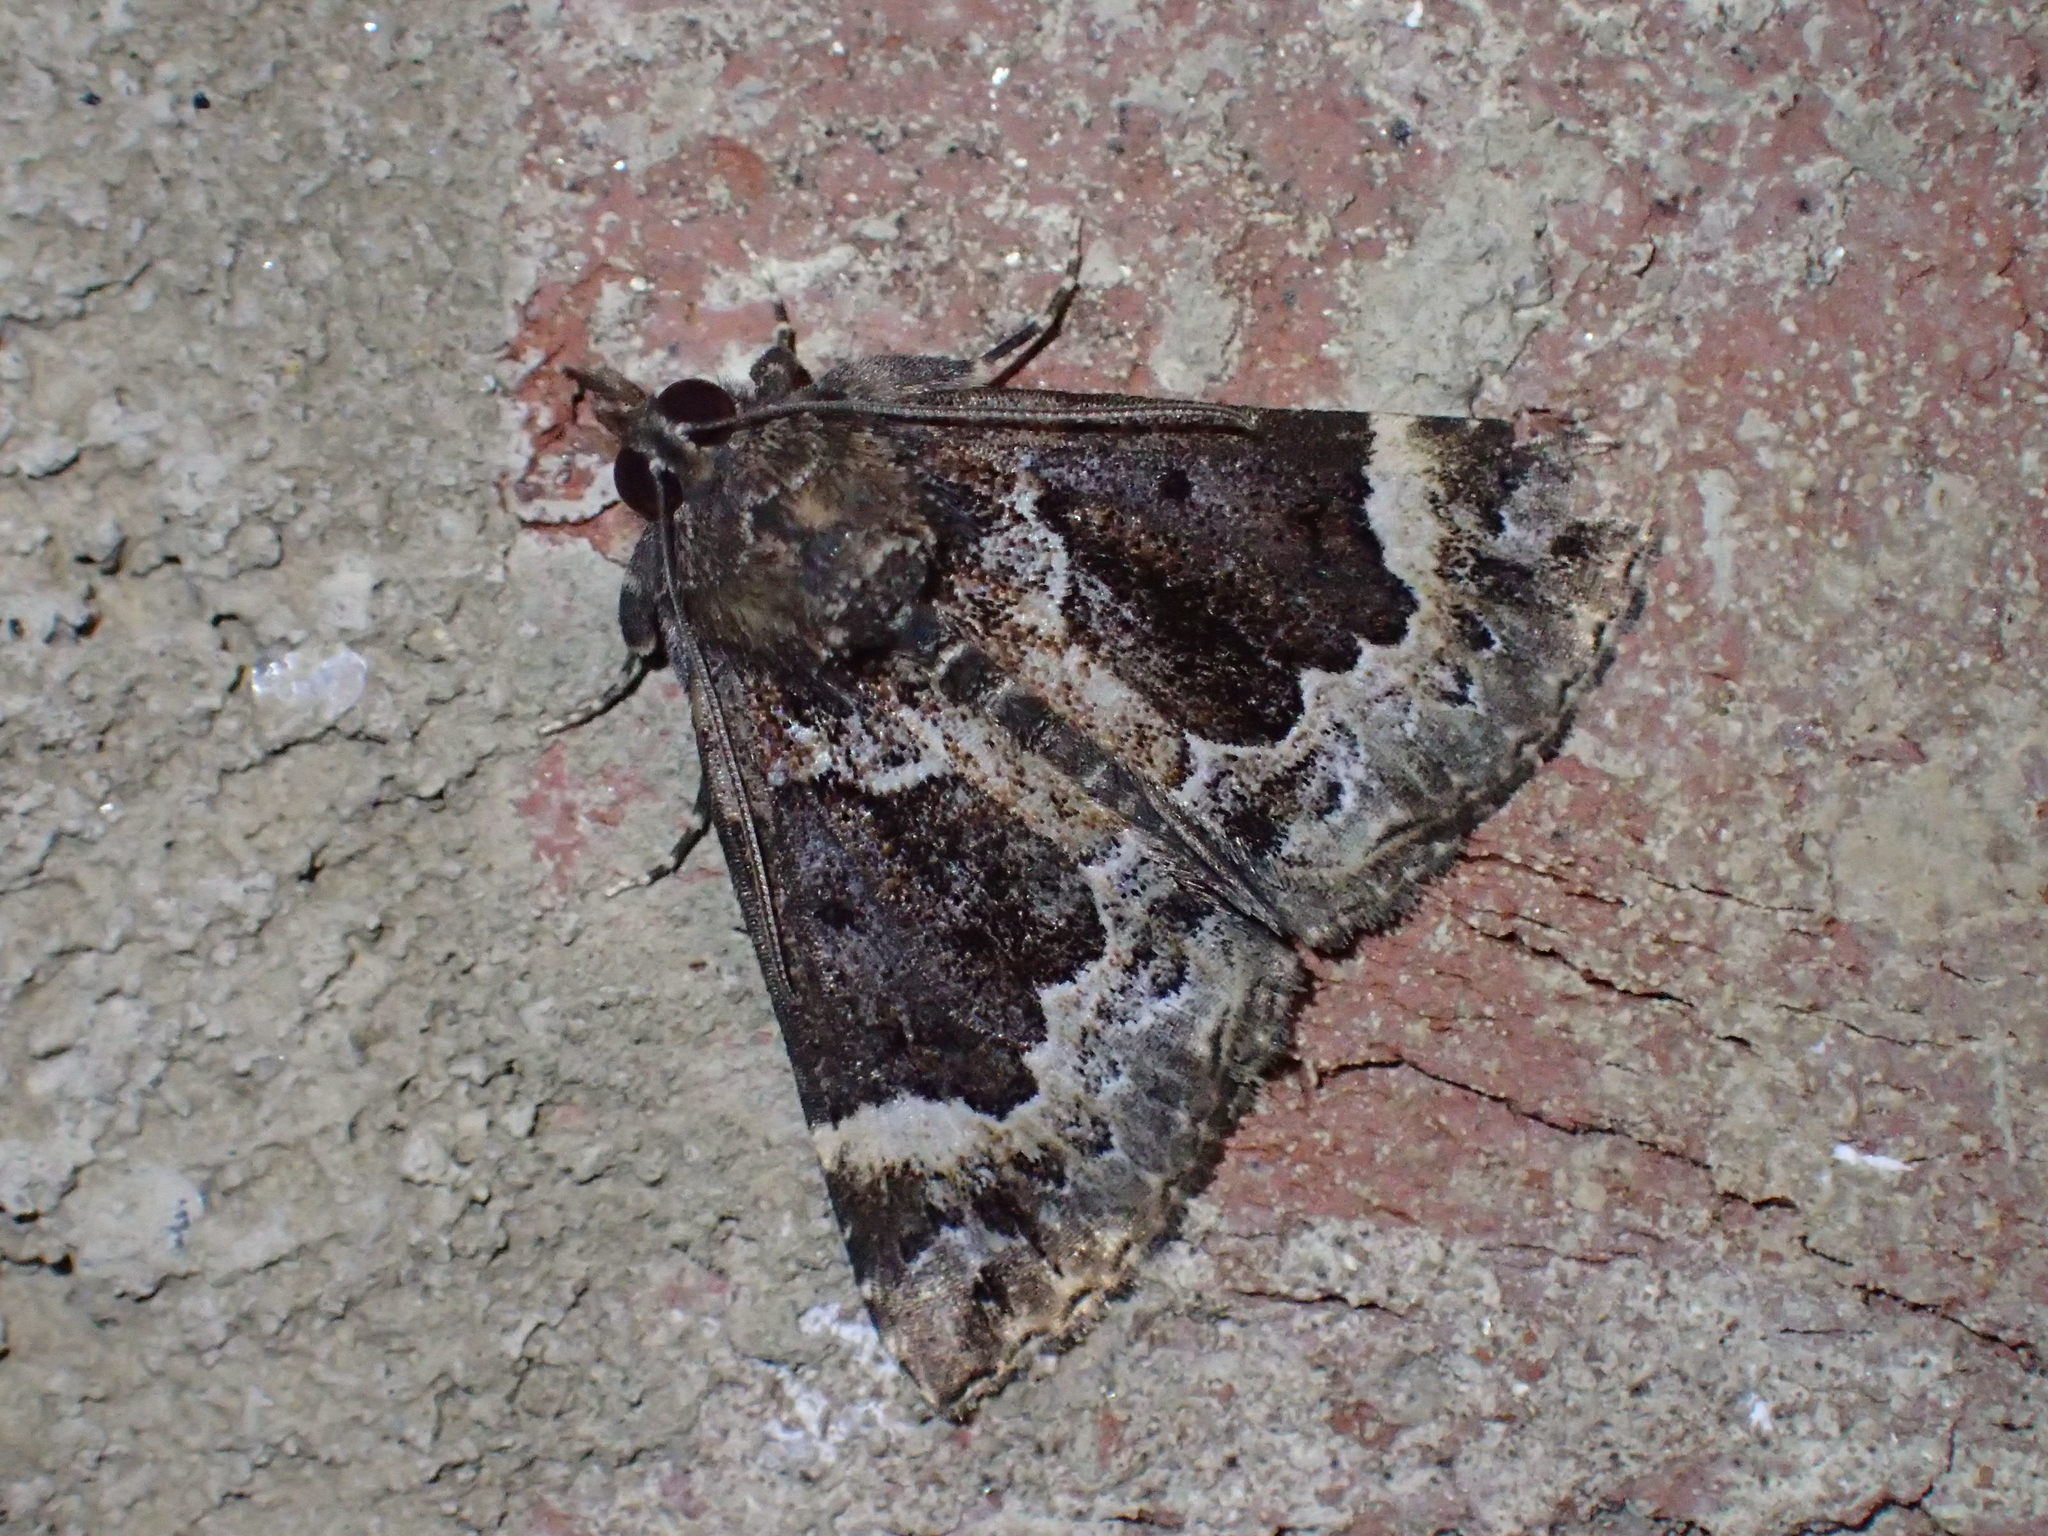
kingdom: Animalia
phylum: Arthropoda
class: Insecta
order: Lepidoptera
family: Erebidae
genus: Hypena
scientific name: Hypena palparia
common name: Mottled bomolocha moth
